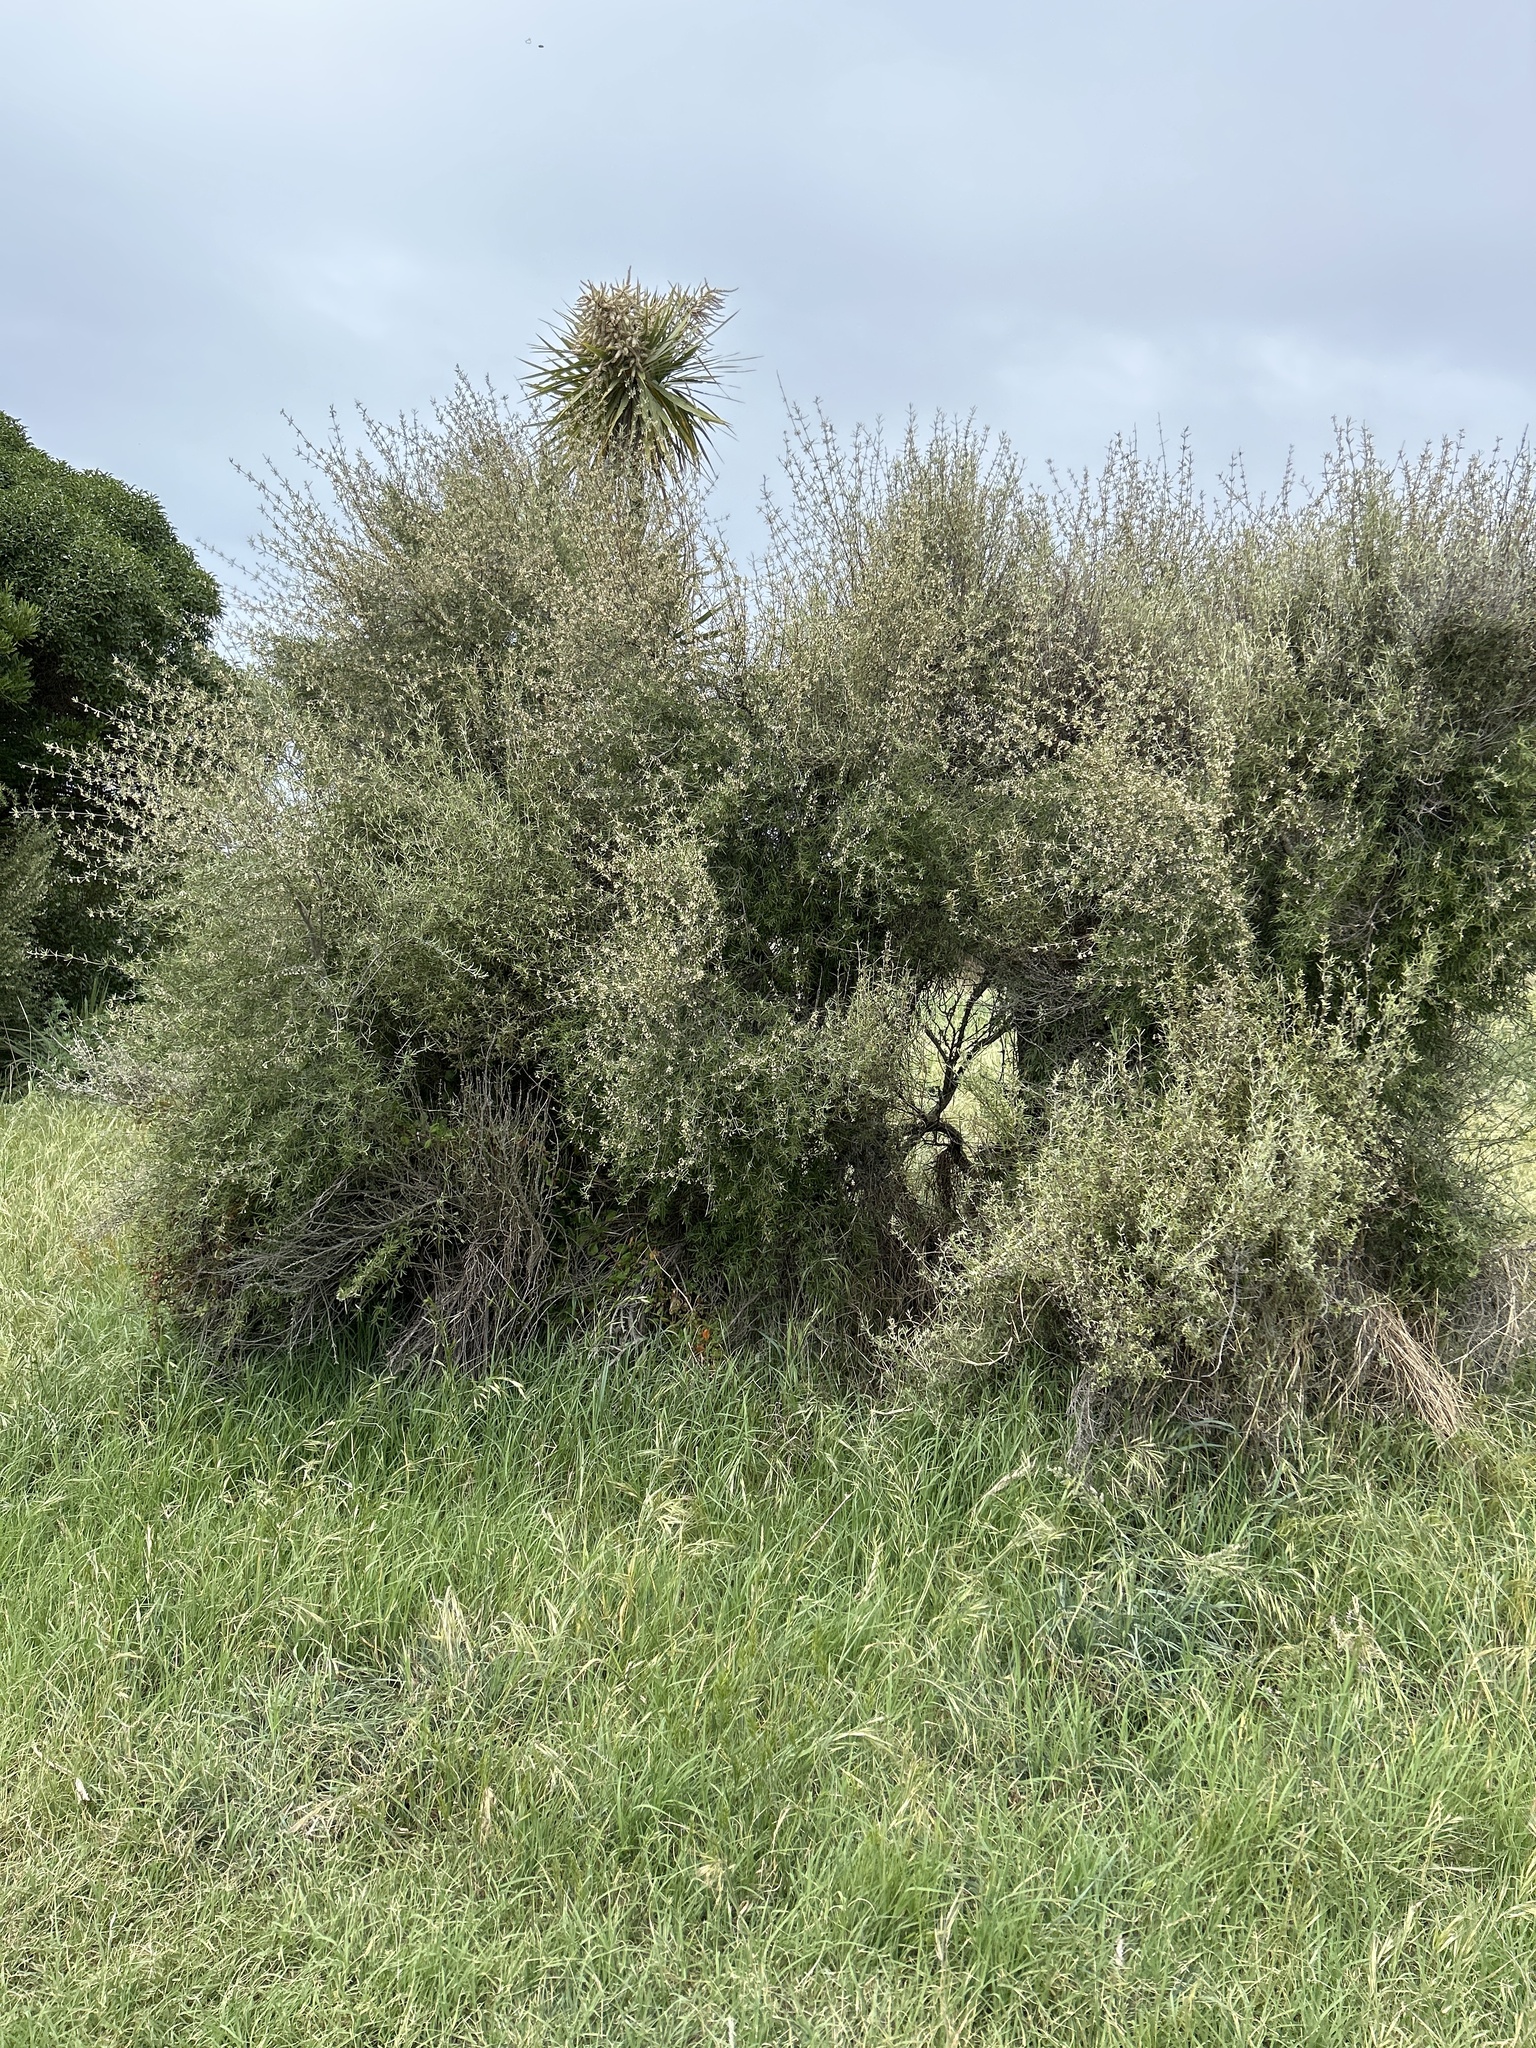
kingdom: Plantae
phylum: Tracheophyta
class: Magnoliopsida
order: Asterales
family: Asteraceae
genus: Olearia
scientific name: Olearia lineata
